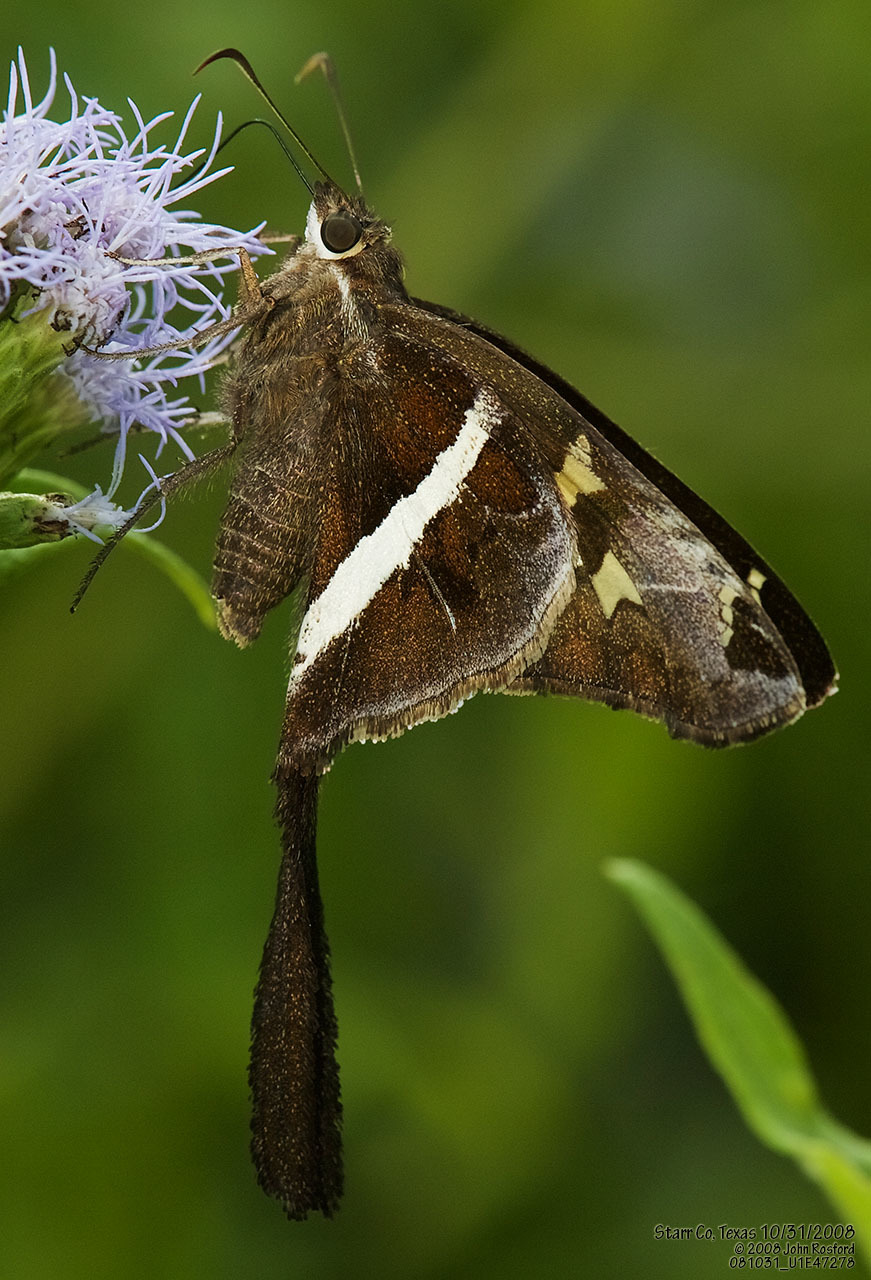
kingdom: Animalia
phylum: Arthropoda
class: Insecta
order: Lepidoptera
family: Hesperiidae
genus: Chioides
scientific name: Chioides catillus
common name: Silverbanded skipper
